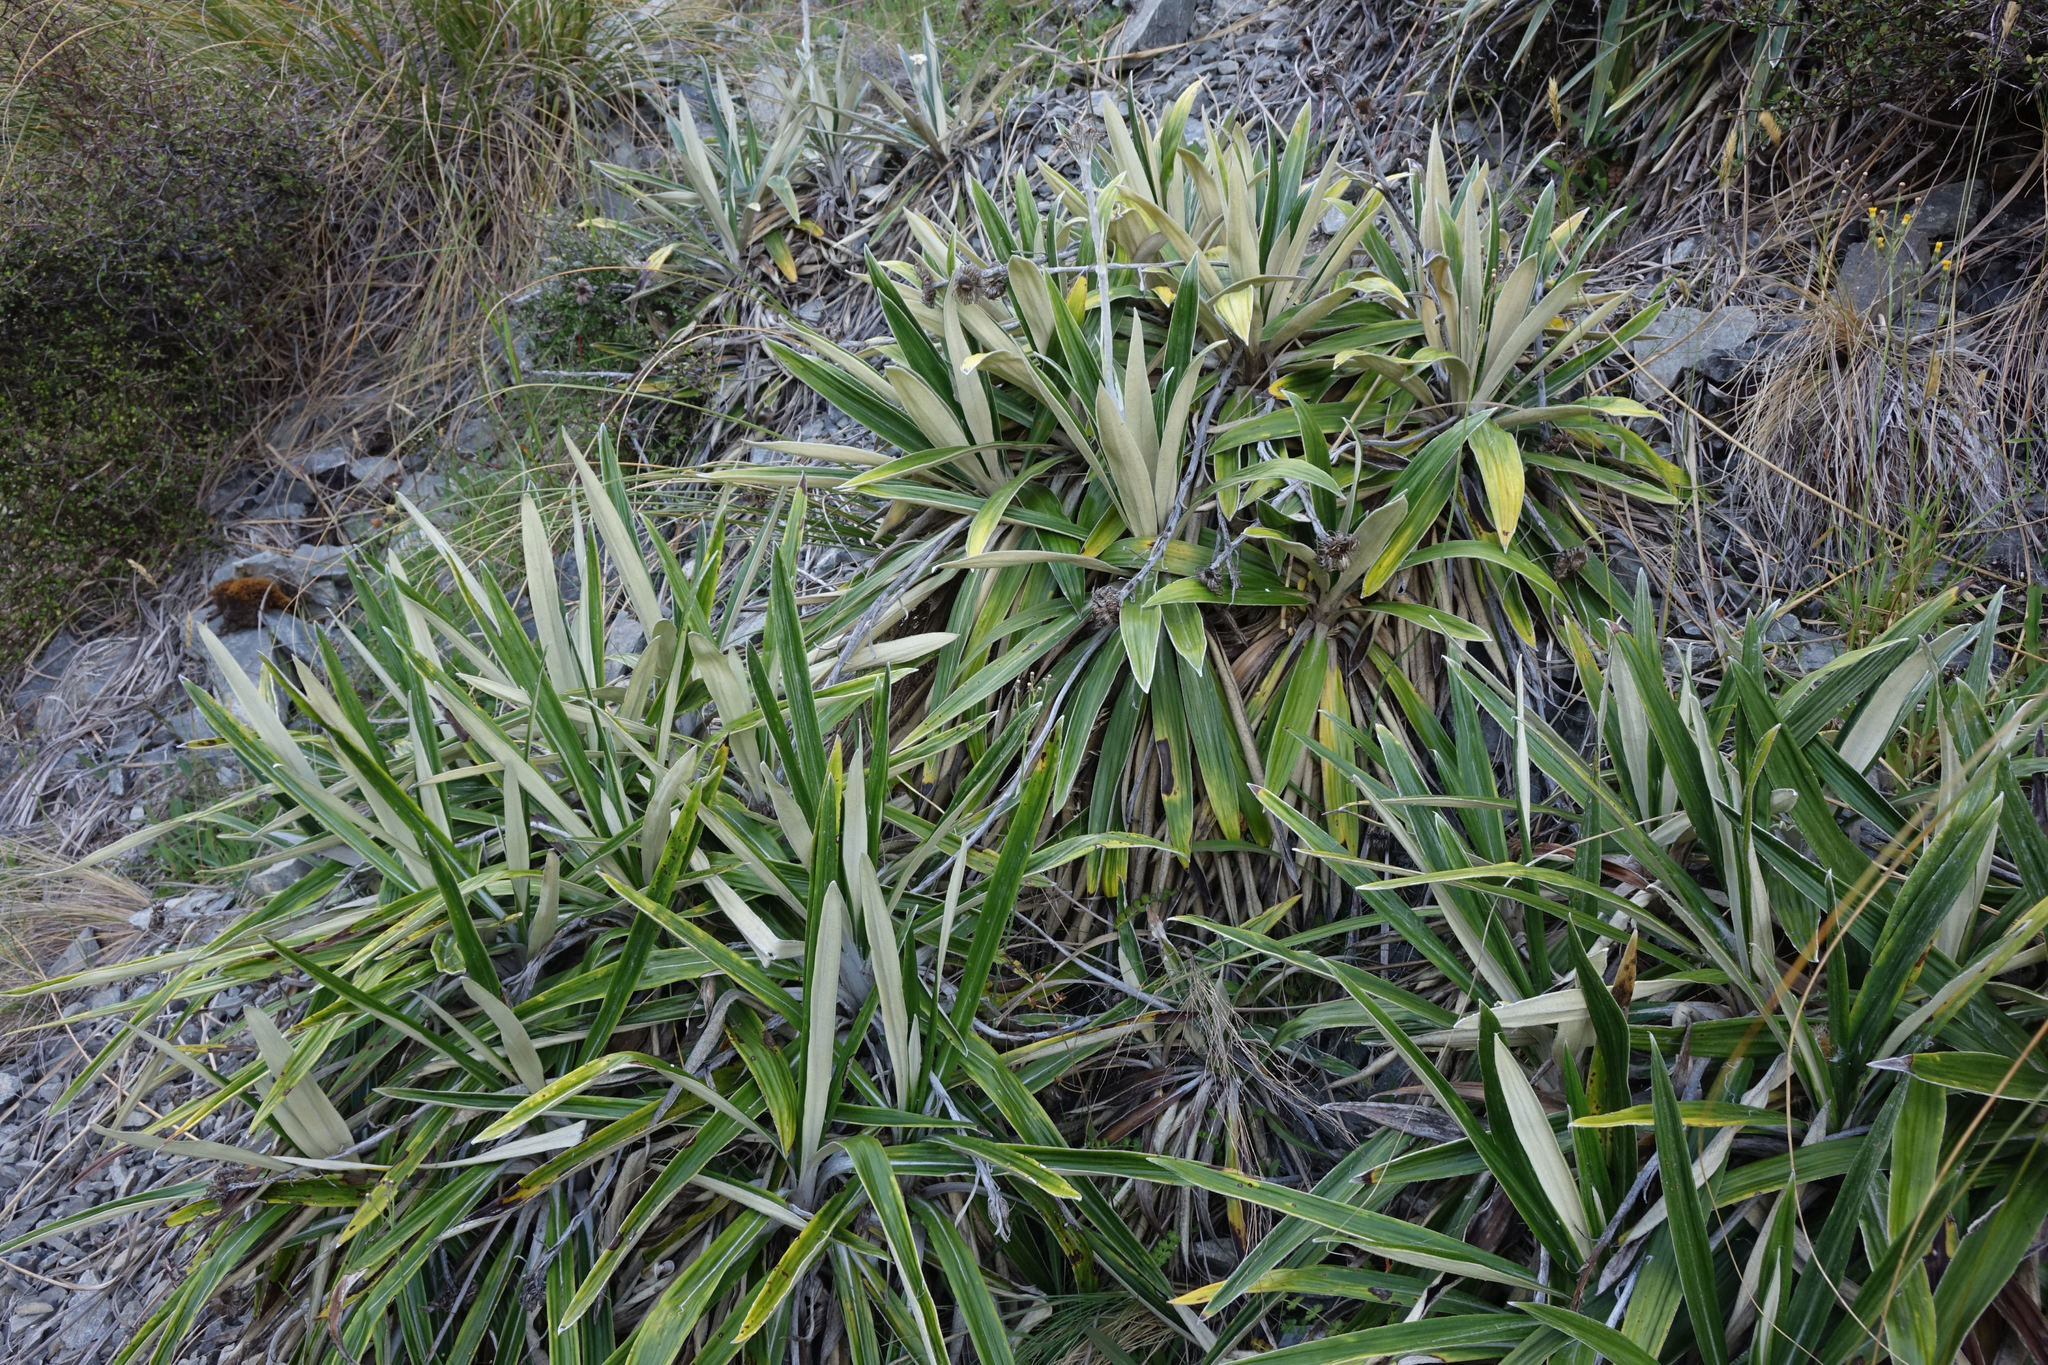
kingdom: Plantae
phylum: Tracheophyta
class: Magnoliopsida
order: Asterales
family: Asteraceae
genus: Celmisia
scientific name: Celmisia spectabilis
